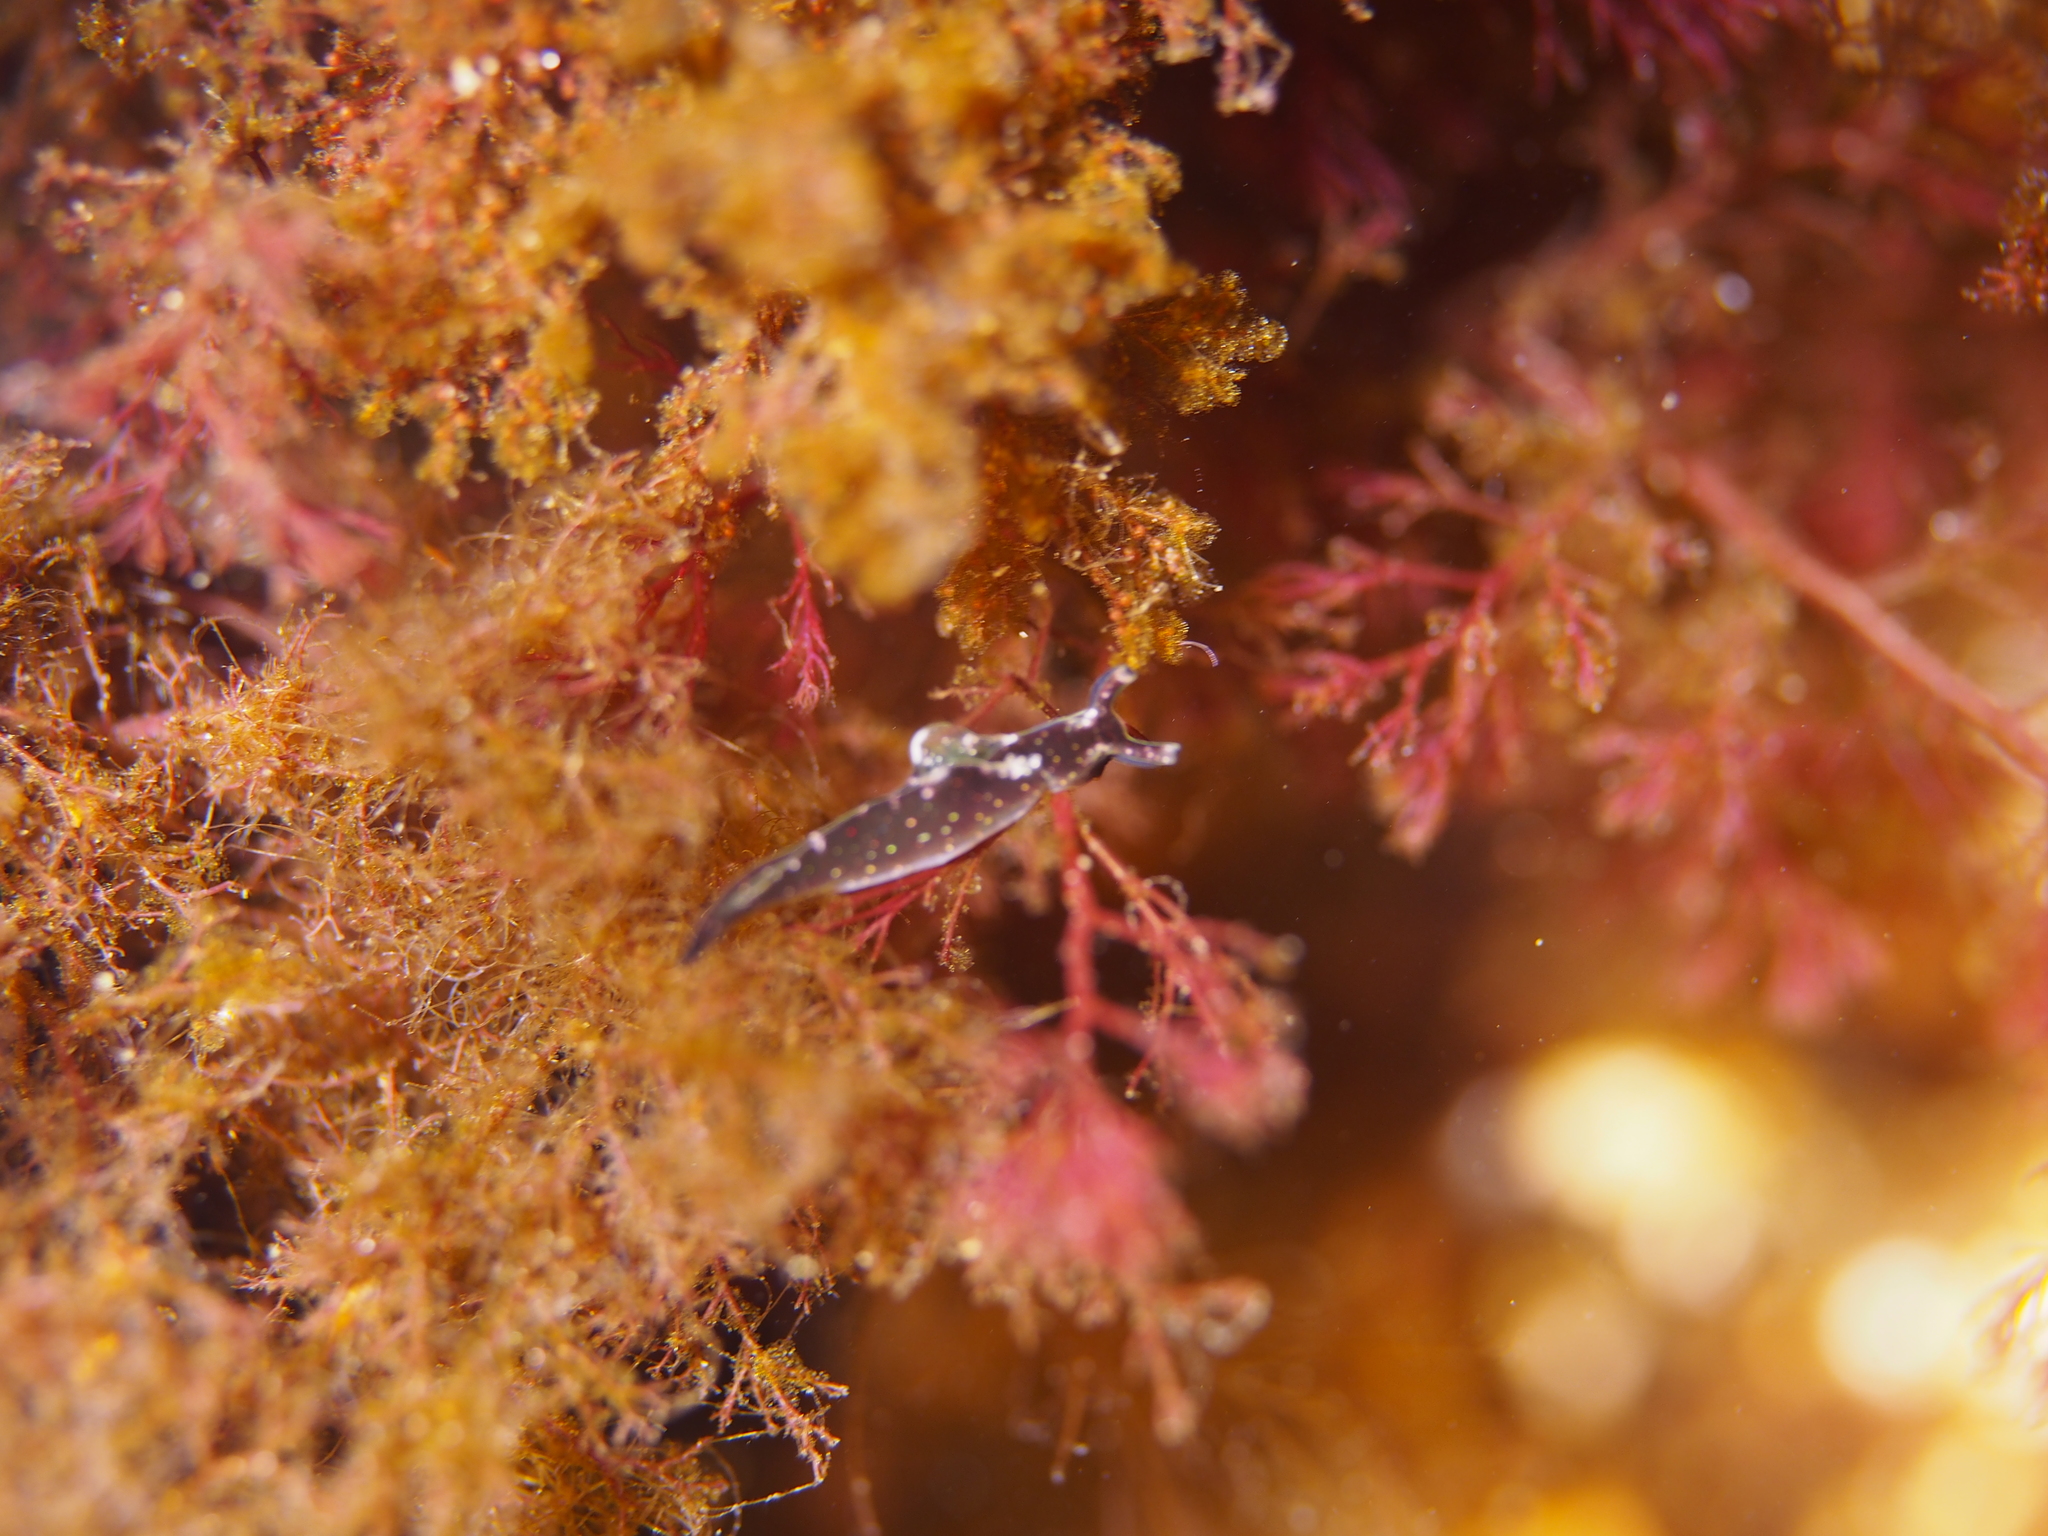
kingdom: Animalia
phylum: Mollusca
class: Gastropoda
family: Plakobranchidae
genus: Elysia
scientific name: Elysia viridis
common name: Green elysia
